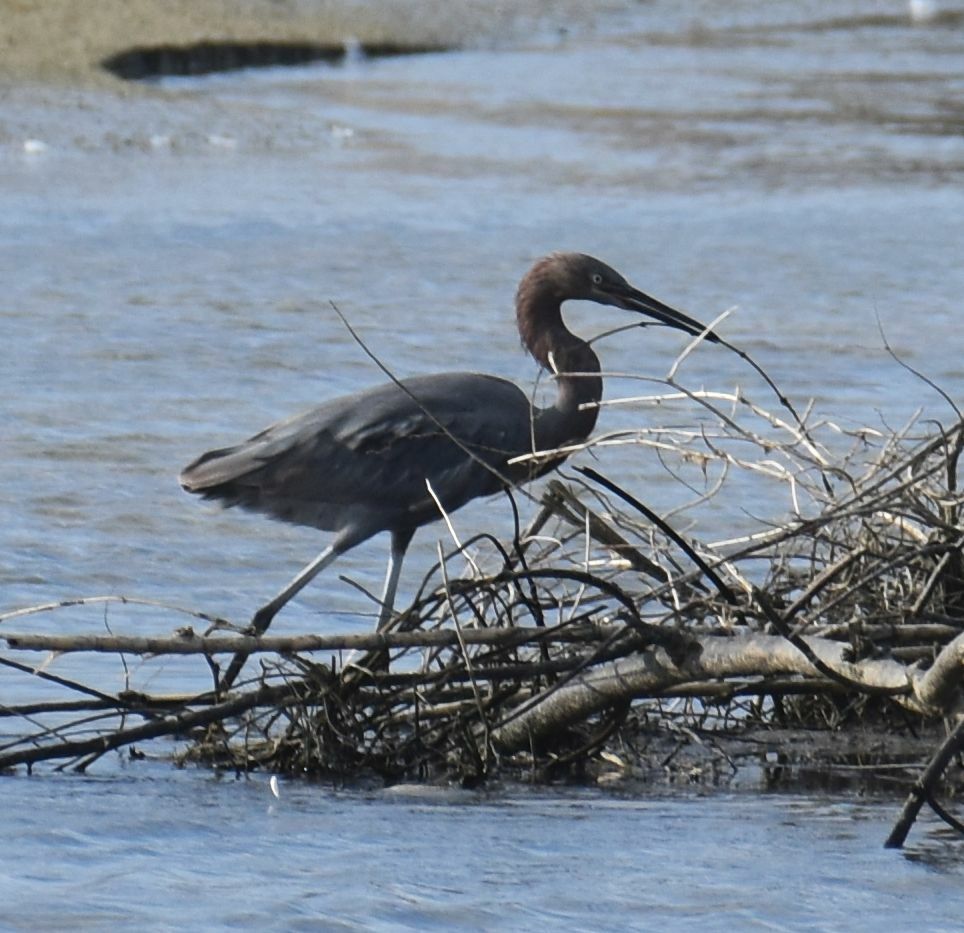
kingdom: Animalia
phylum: Chordata
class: Aves
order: Pelecaniformes
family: Ardeidae
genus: Egretta
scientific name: Egretta rufescens
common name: Reddish egret
